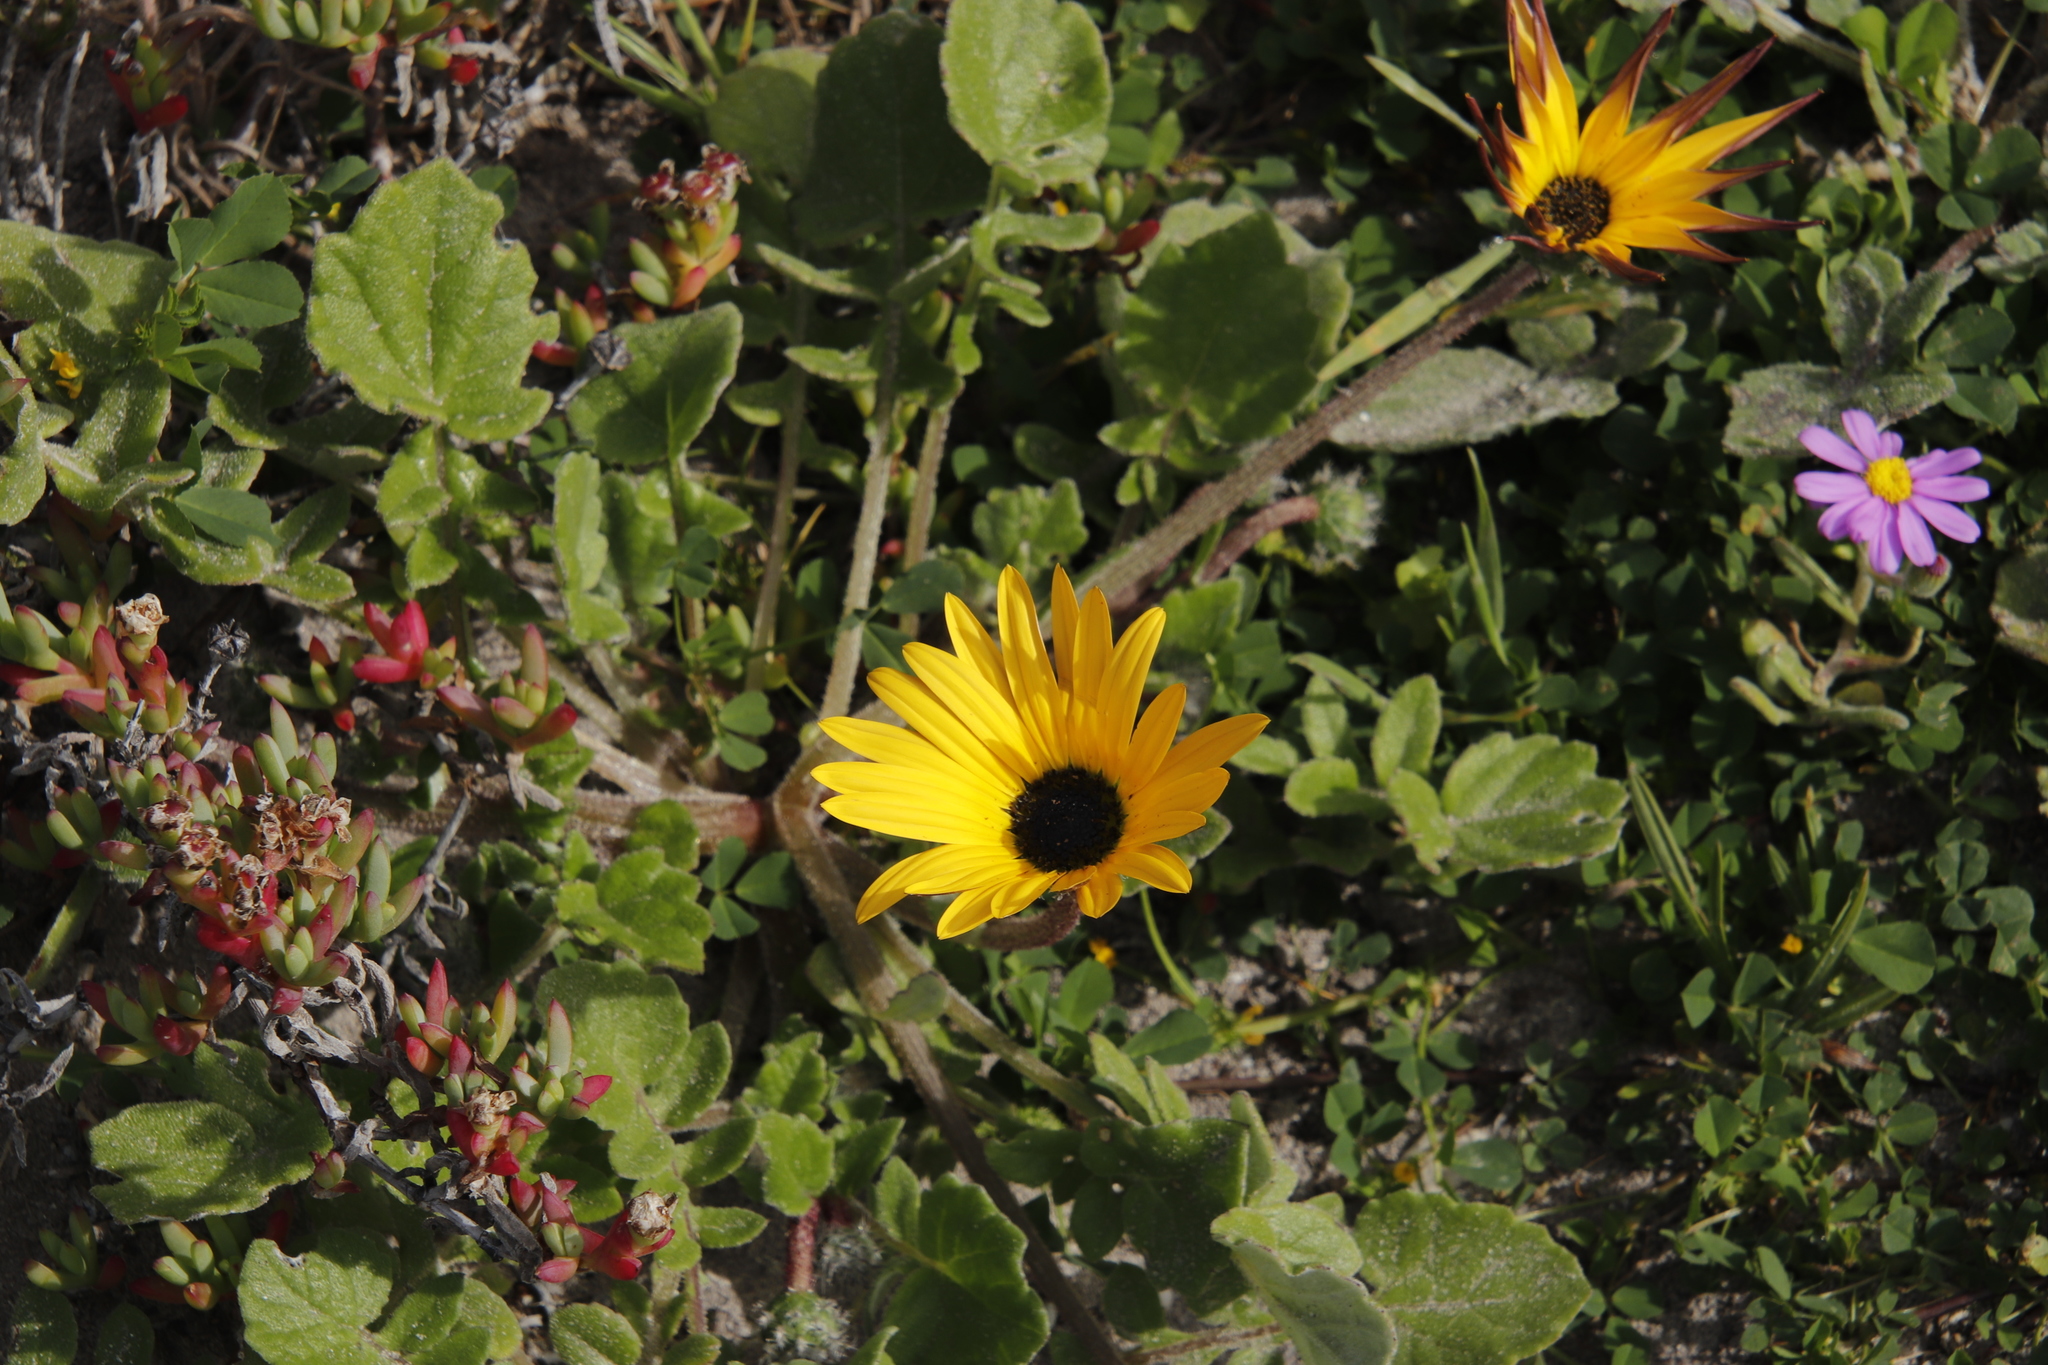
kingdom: Plantae
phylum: Tracheophyta
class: Magnoliopsida
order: Asterales
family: Asteraceae
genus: Arctotheca
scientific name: Arctotheca calendula
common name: Capeweed
